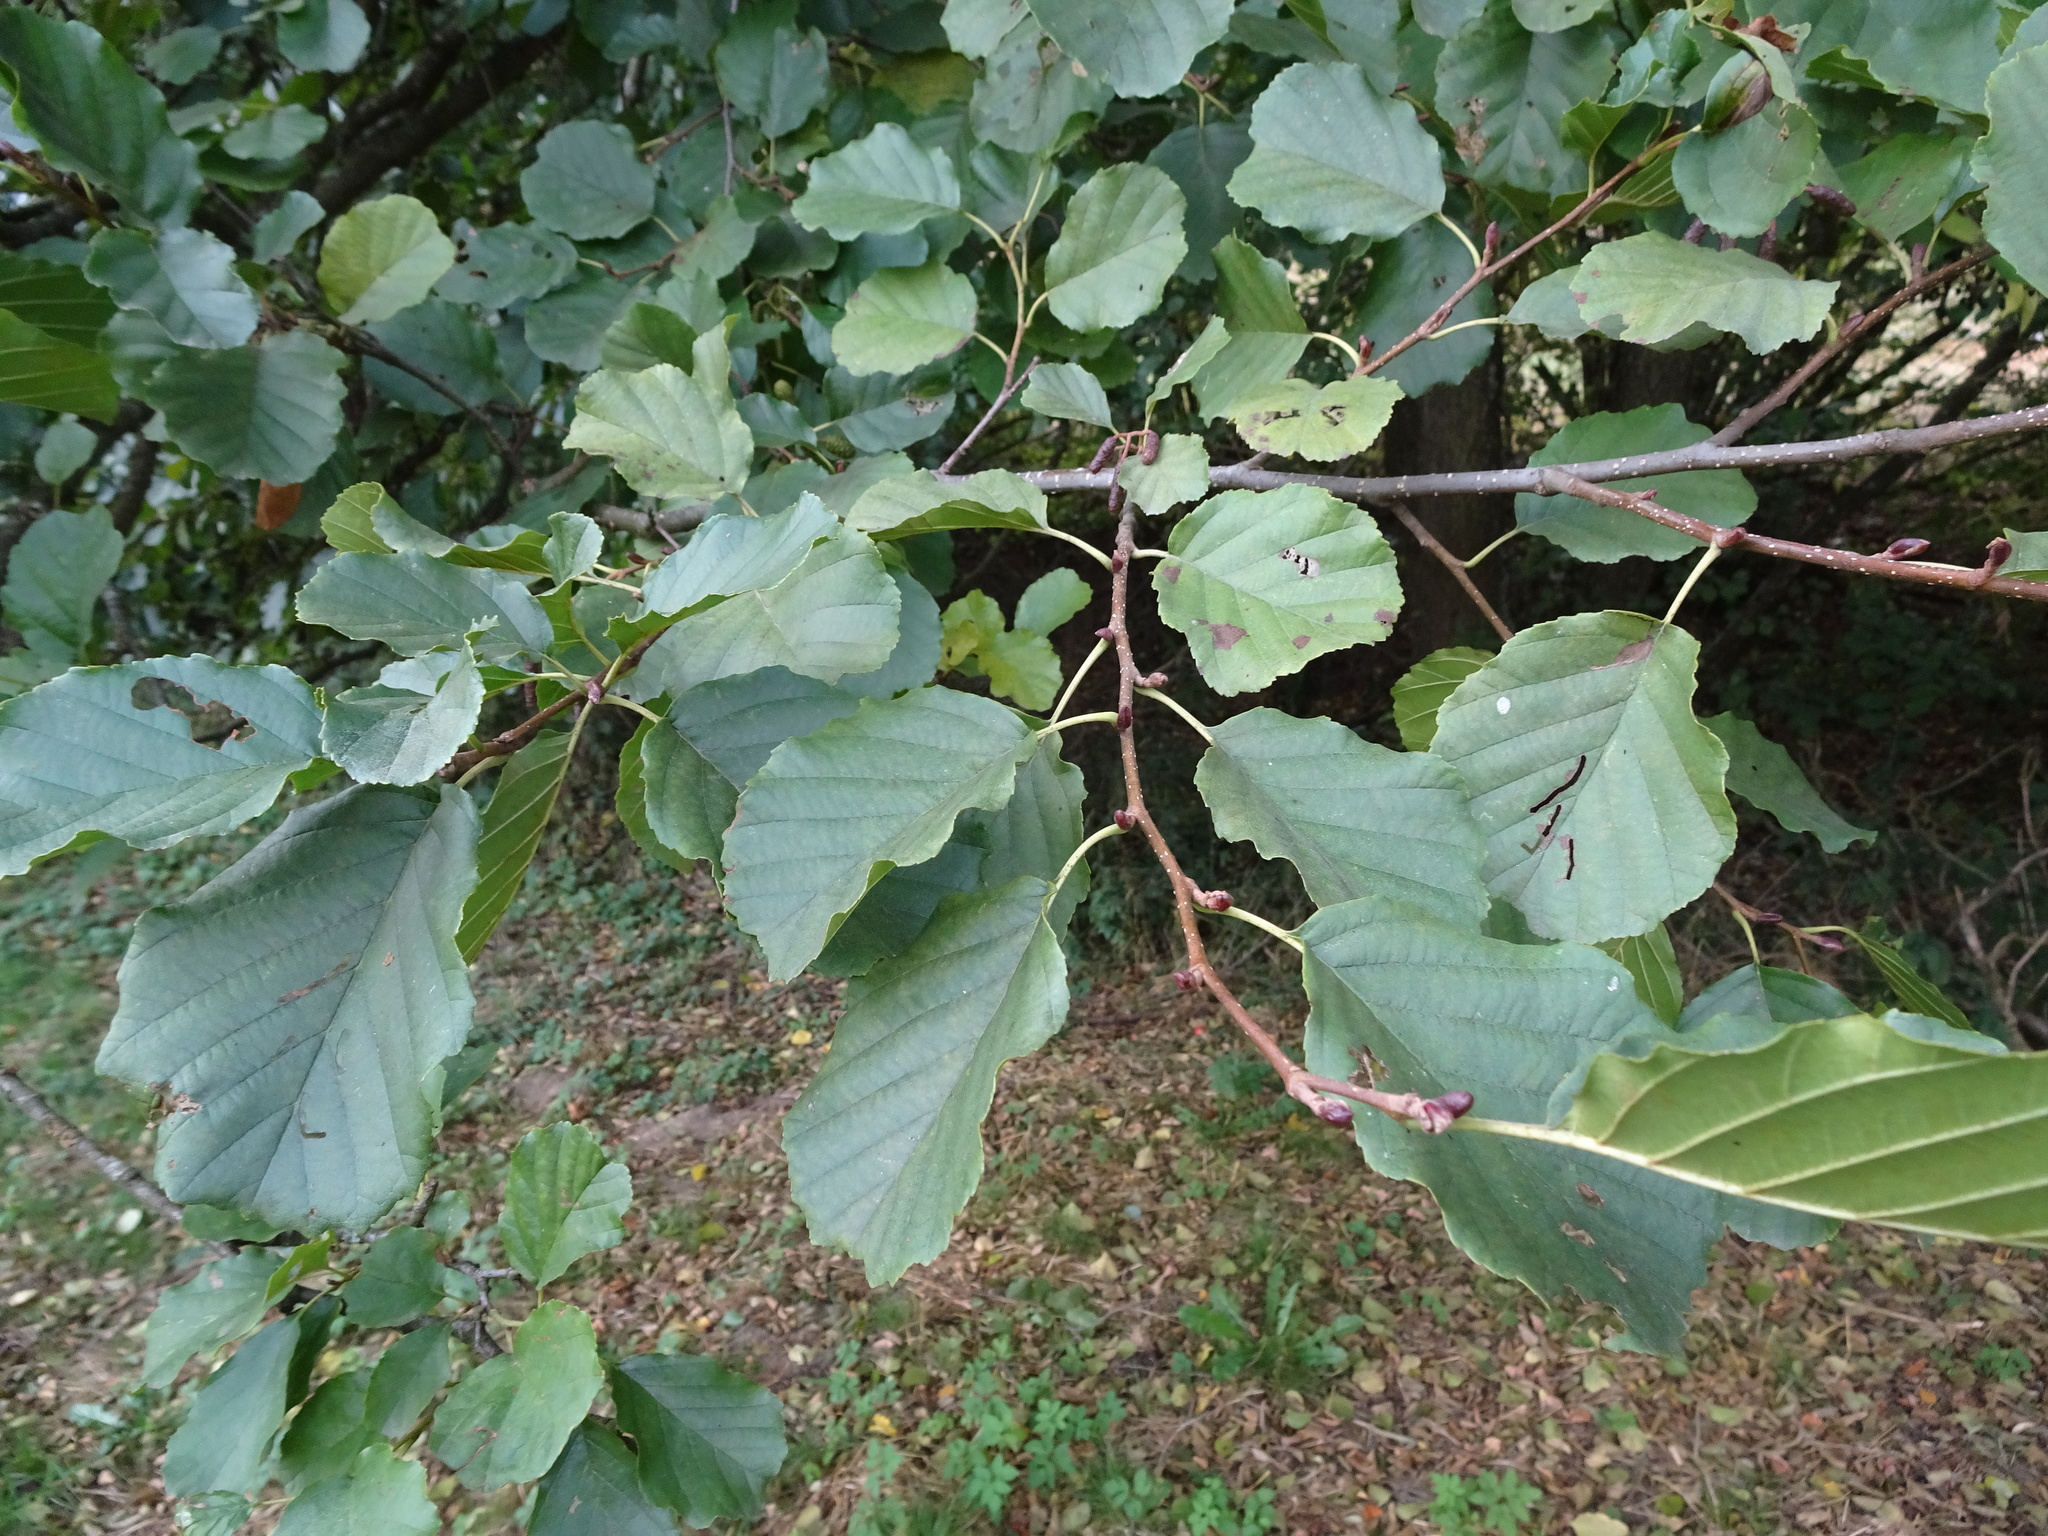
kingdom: Plantae
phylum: Tracheophyta
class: Magnoliopsida
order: Fagales
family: Betulaceae
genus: Alnus
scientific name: Alnus glutinosa
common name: Black alder
